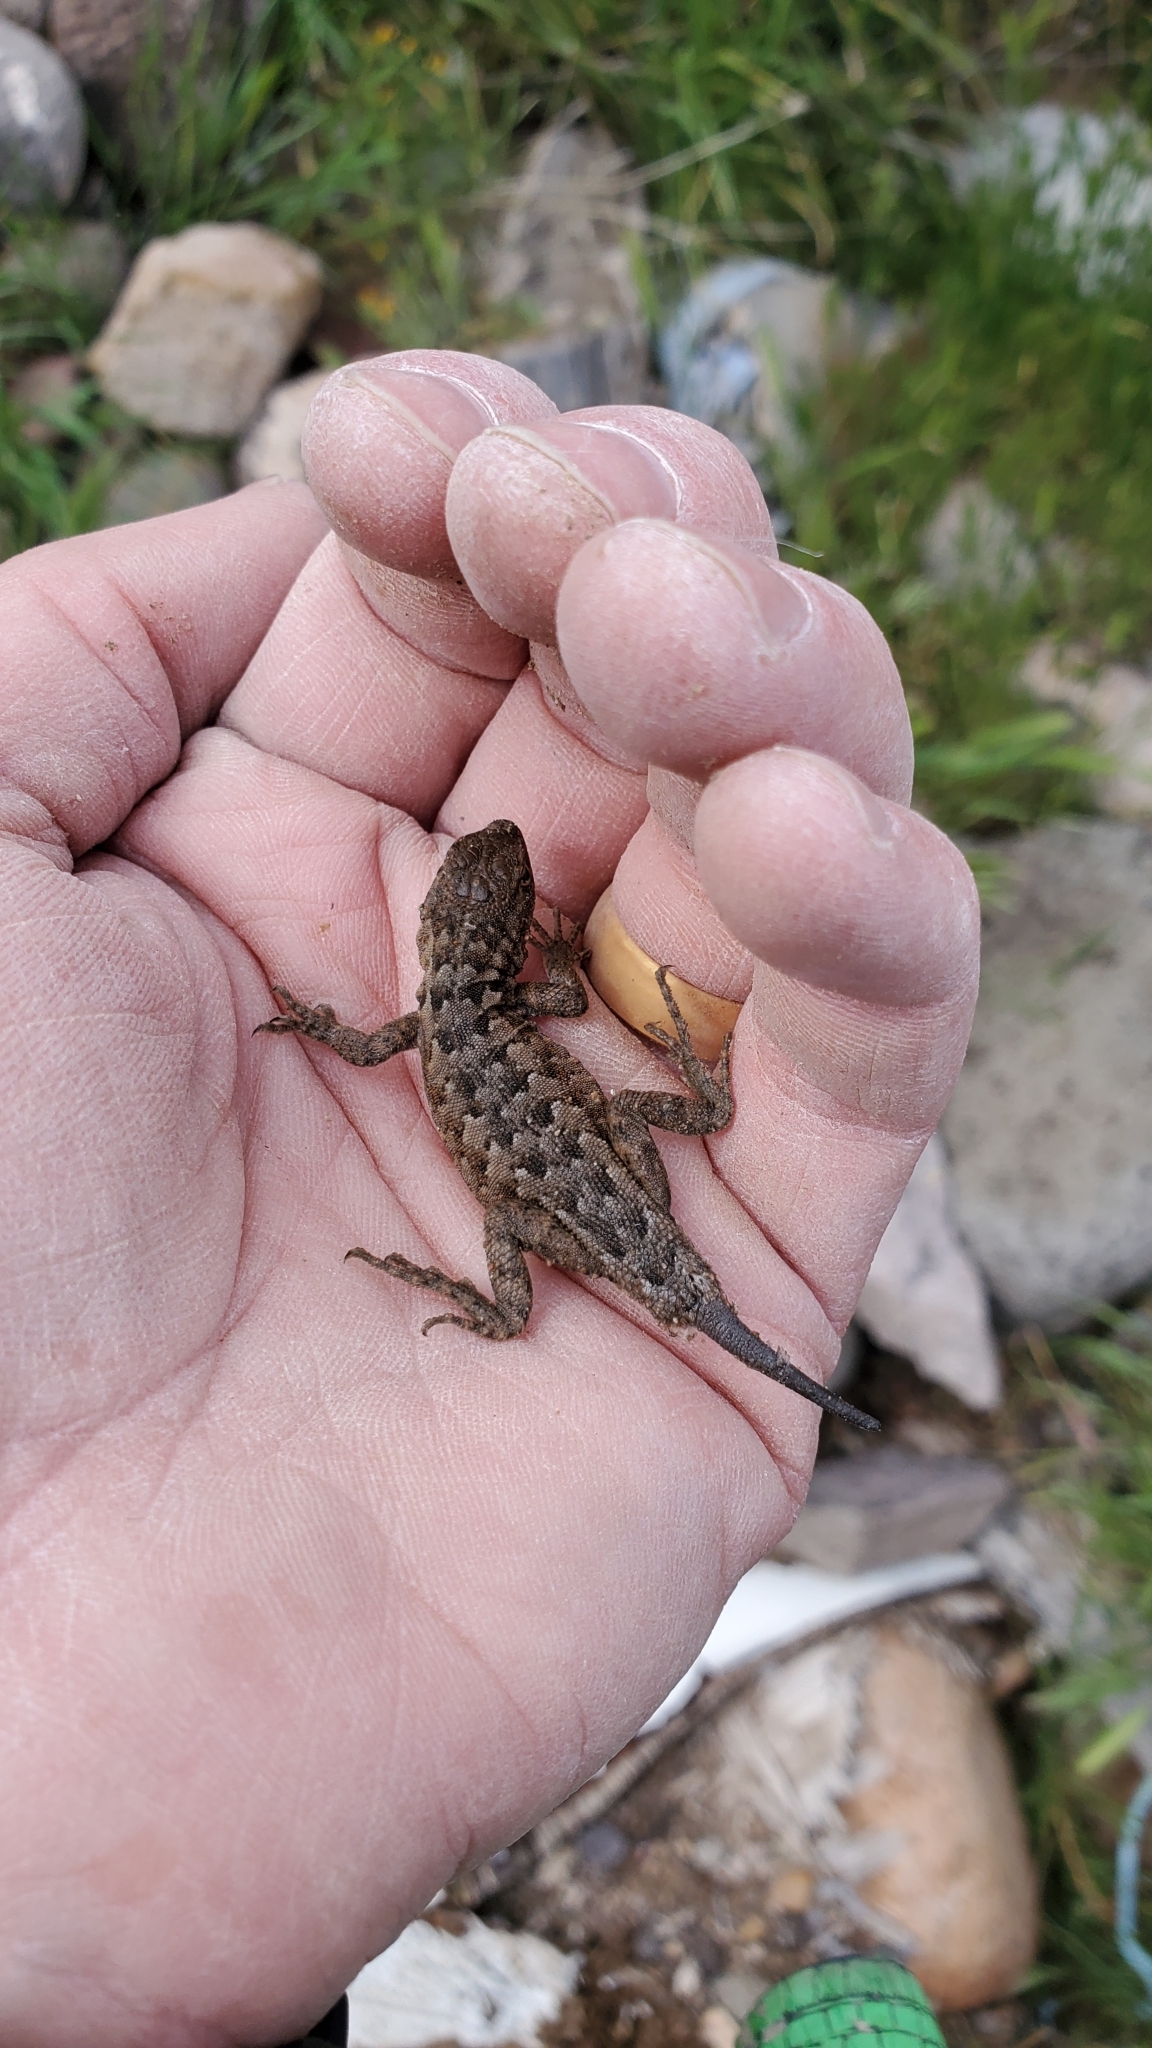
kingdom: Animalia
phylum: Chordata
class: Squamata
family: Phrynosomatidae
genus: Uta
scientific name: Uta stansburiana
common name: Side-blotched lizard
